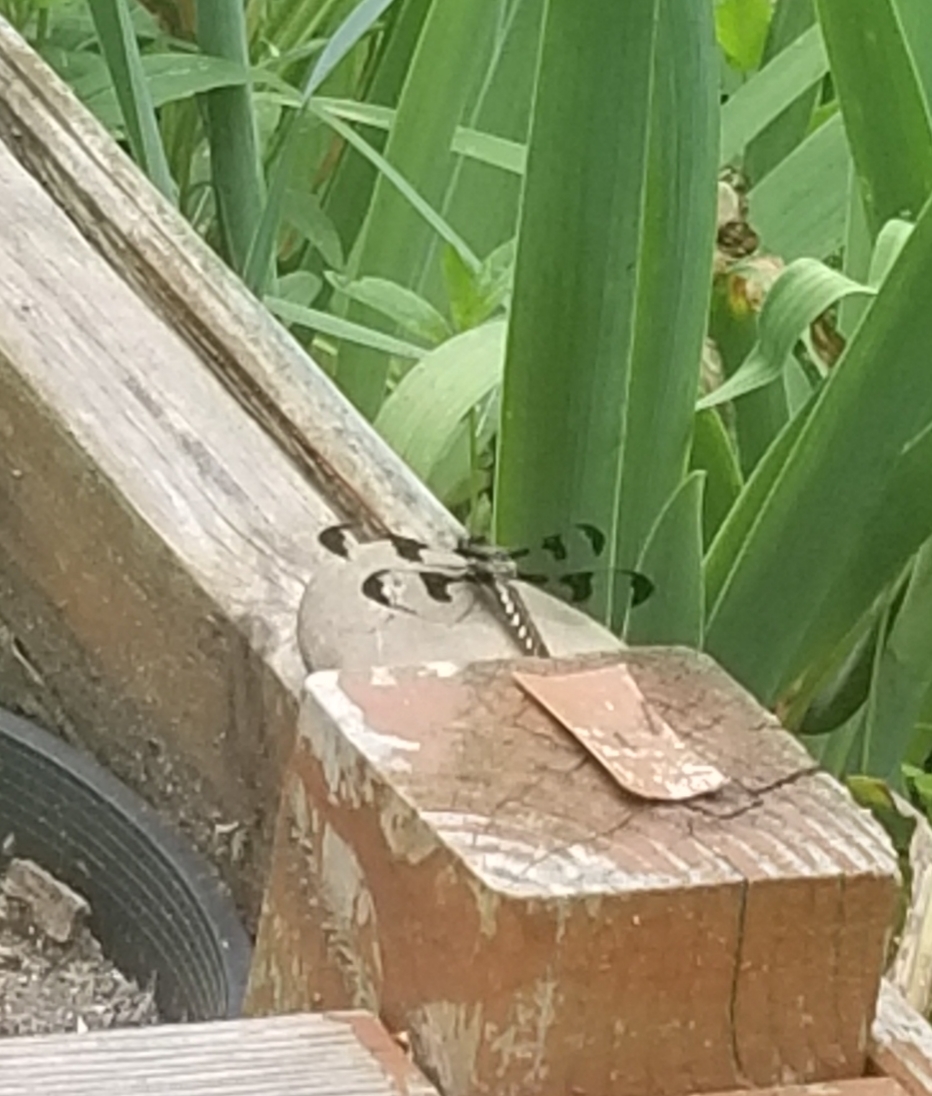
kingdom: Animalia
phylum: Arthropoda
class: Insecta
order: Odonata
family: Libellulidae
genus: Plathemis
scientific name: Plathemis lydia
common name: Common whitetail
